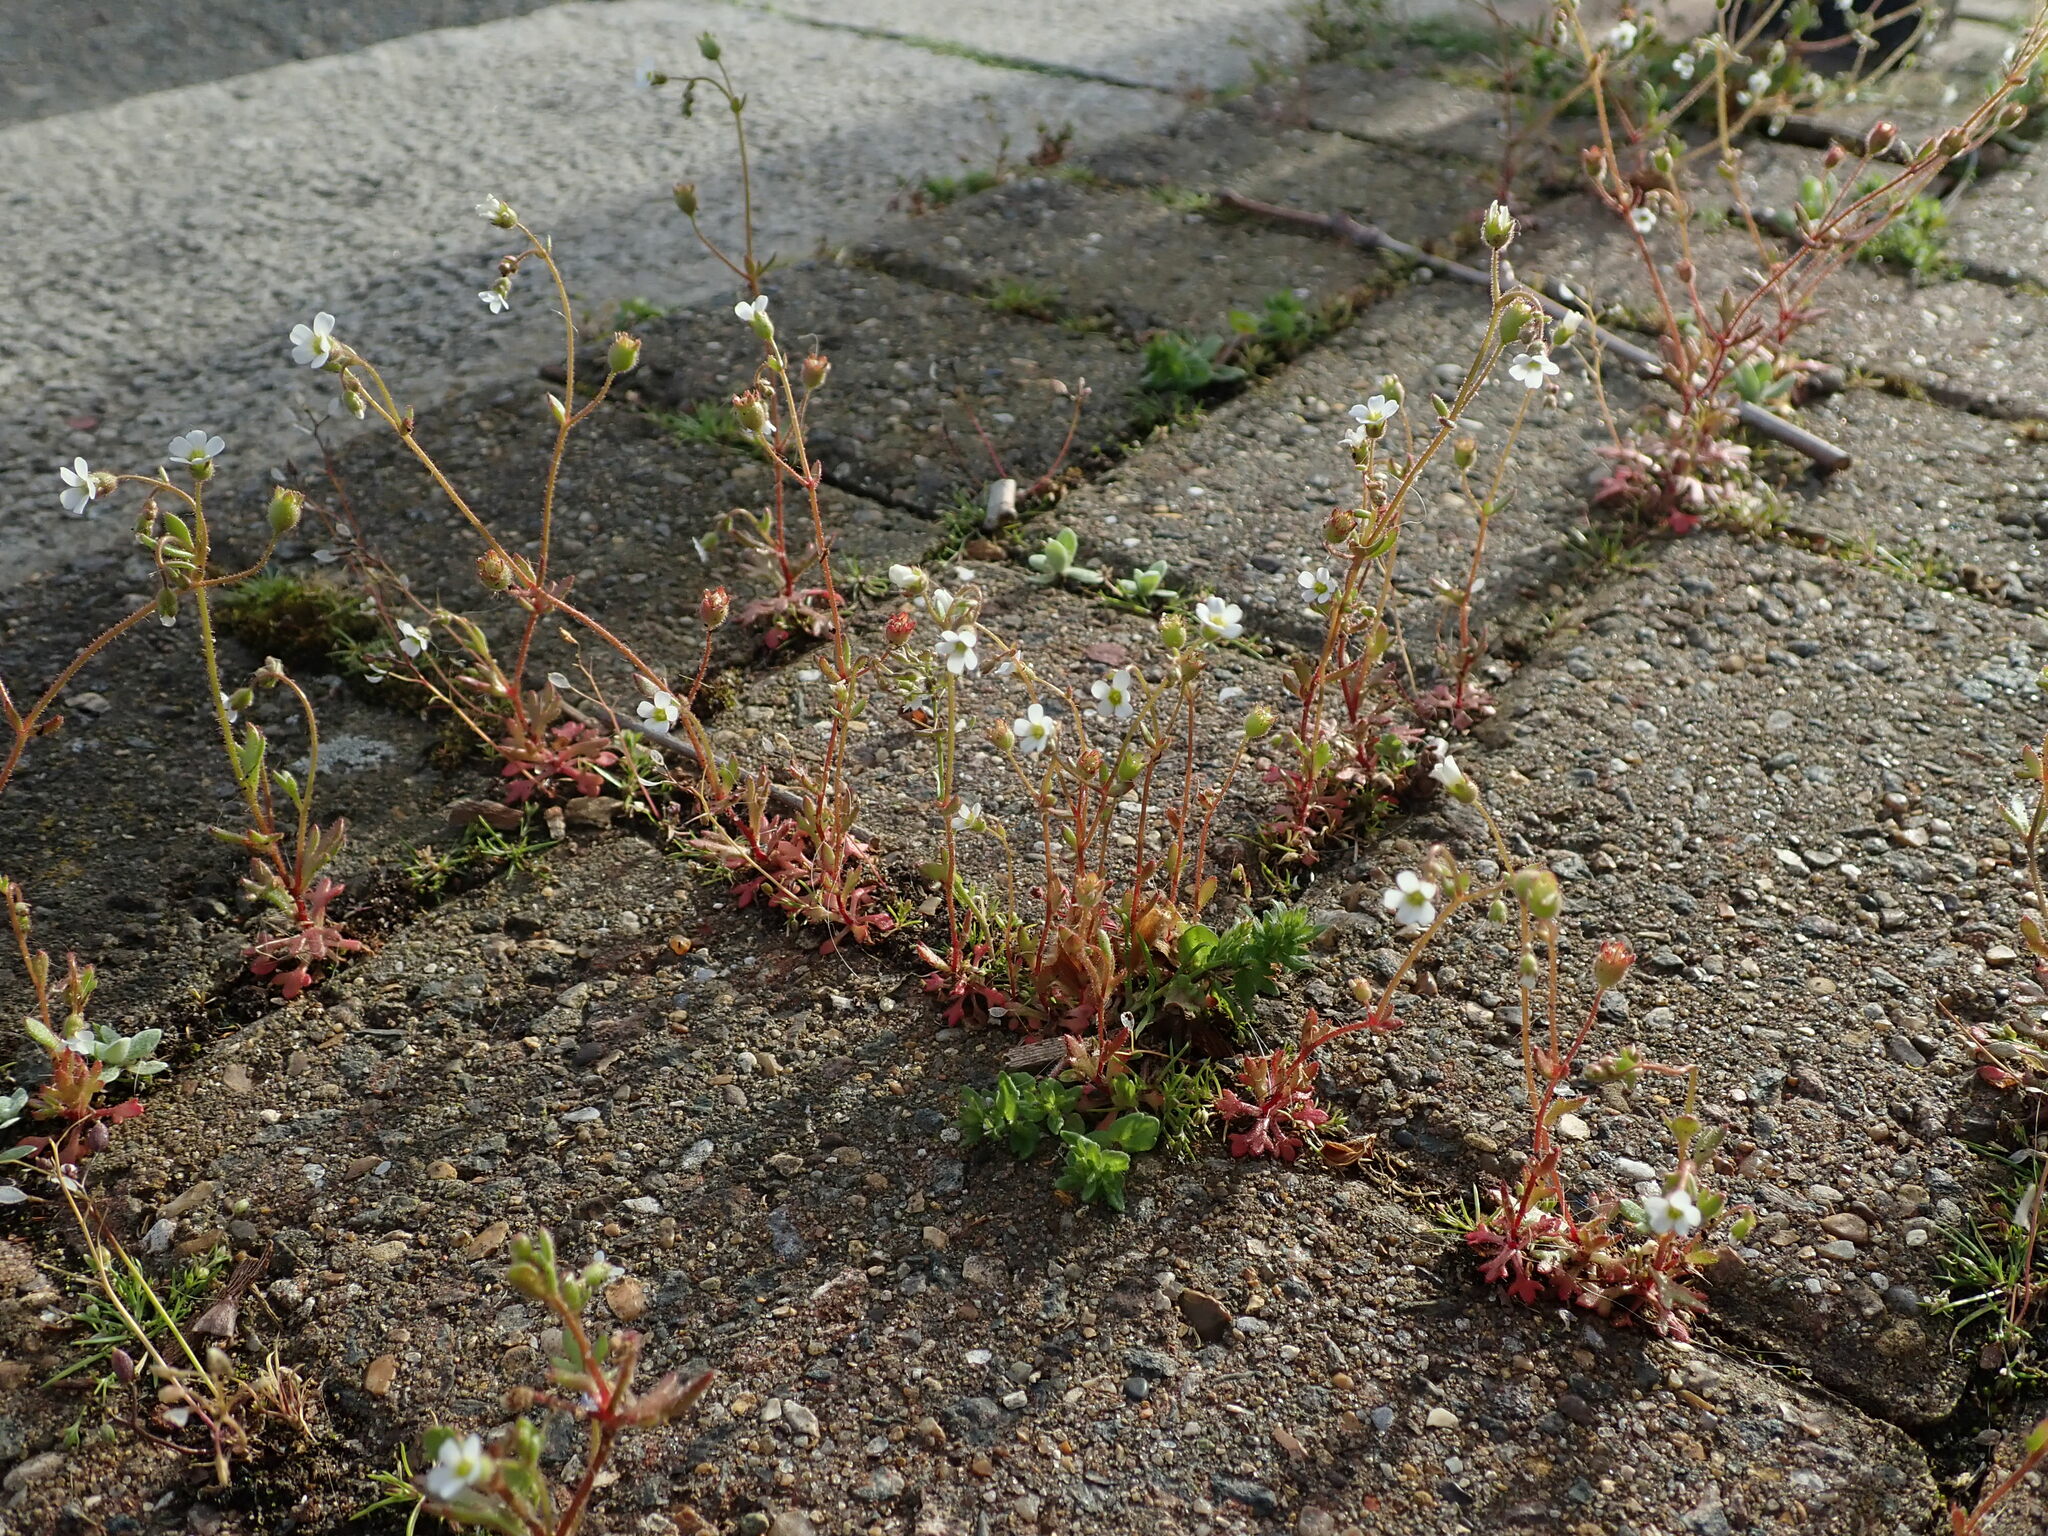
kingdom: Plantae
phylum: Tracheophyta
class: Magnoliopsida
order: Saxifragales
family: Saxifragaceae
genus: Saxifraga
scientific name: Saxifraga tridactylites
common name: Rue-leaved saxifrage
